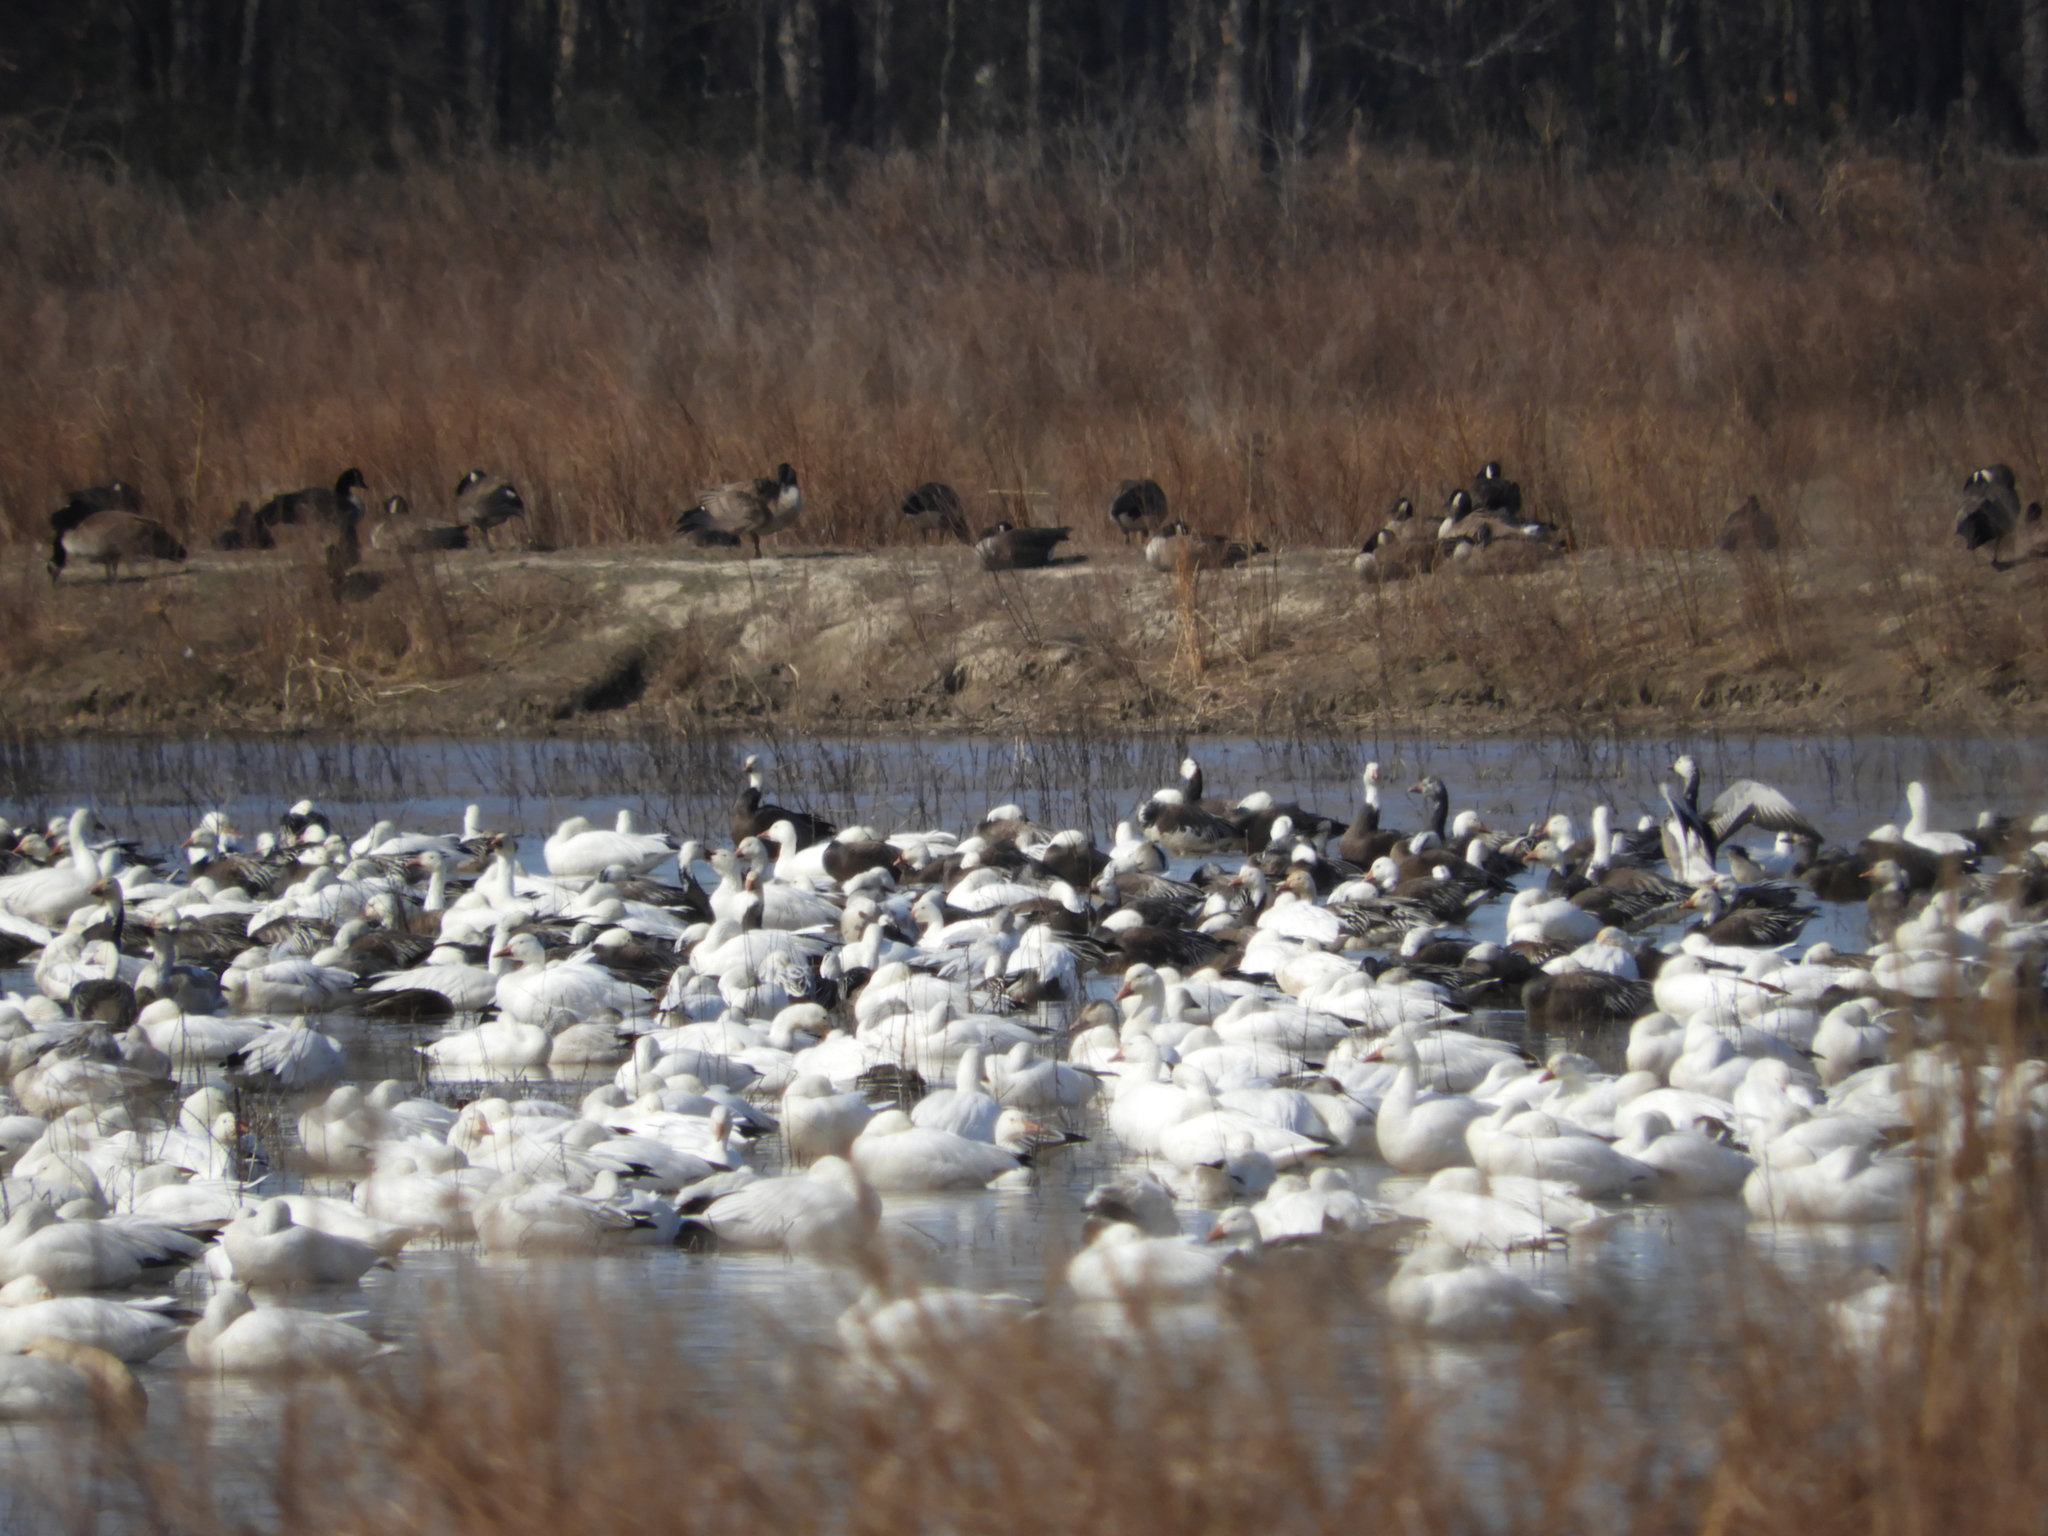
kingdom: Animalia
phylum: Chordata
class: Aves
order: Anseriformes
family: Anatidae
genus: Anser
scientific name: Anser caerulescens
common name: Snow goose
